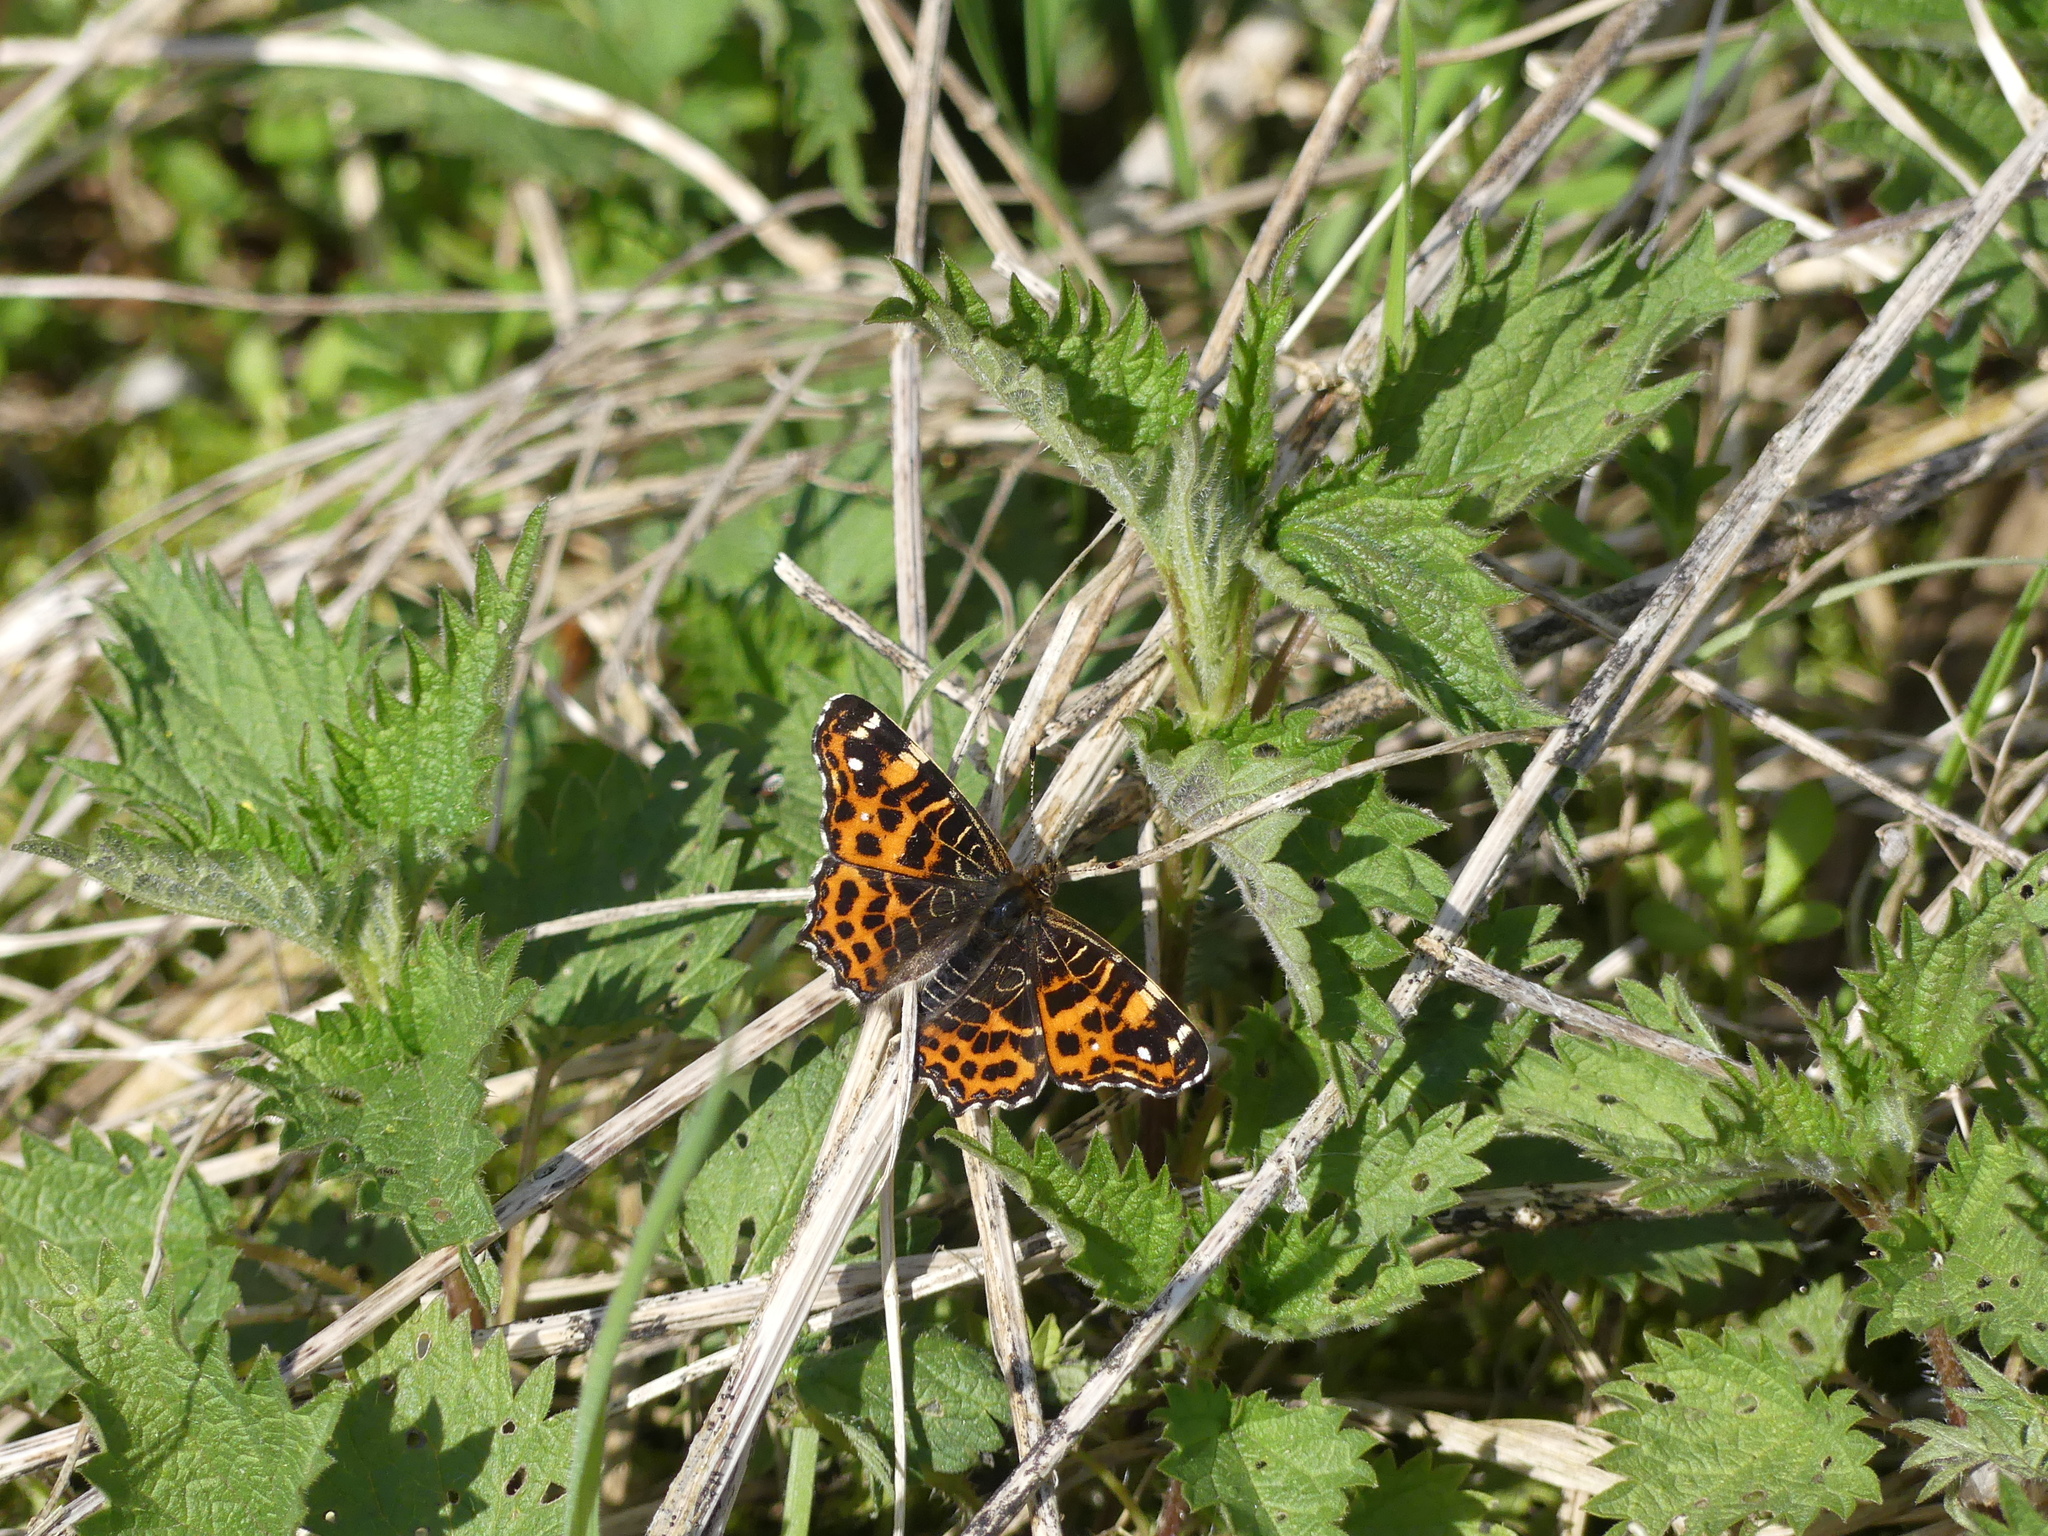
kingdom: Animalia
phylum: Arthropoda
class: Insecta
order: Lepidoptera
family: Nymphalidae
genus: Araschnia
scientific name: Araschnia levana
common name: Map butterfly
